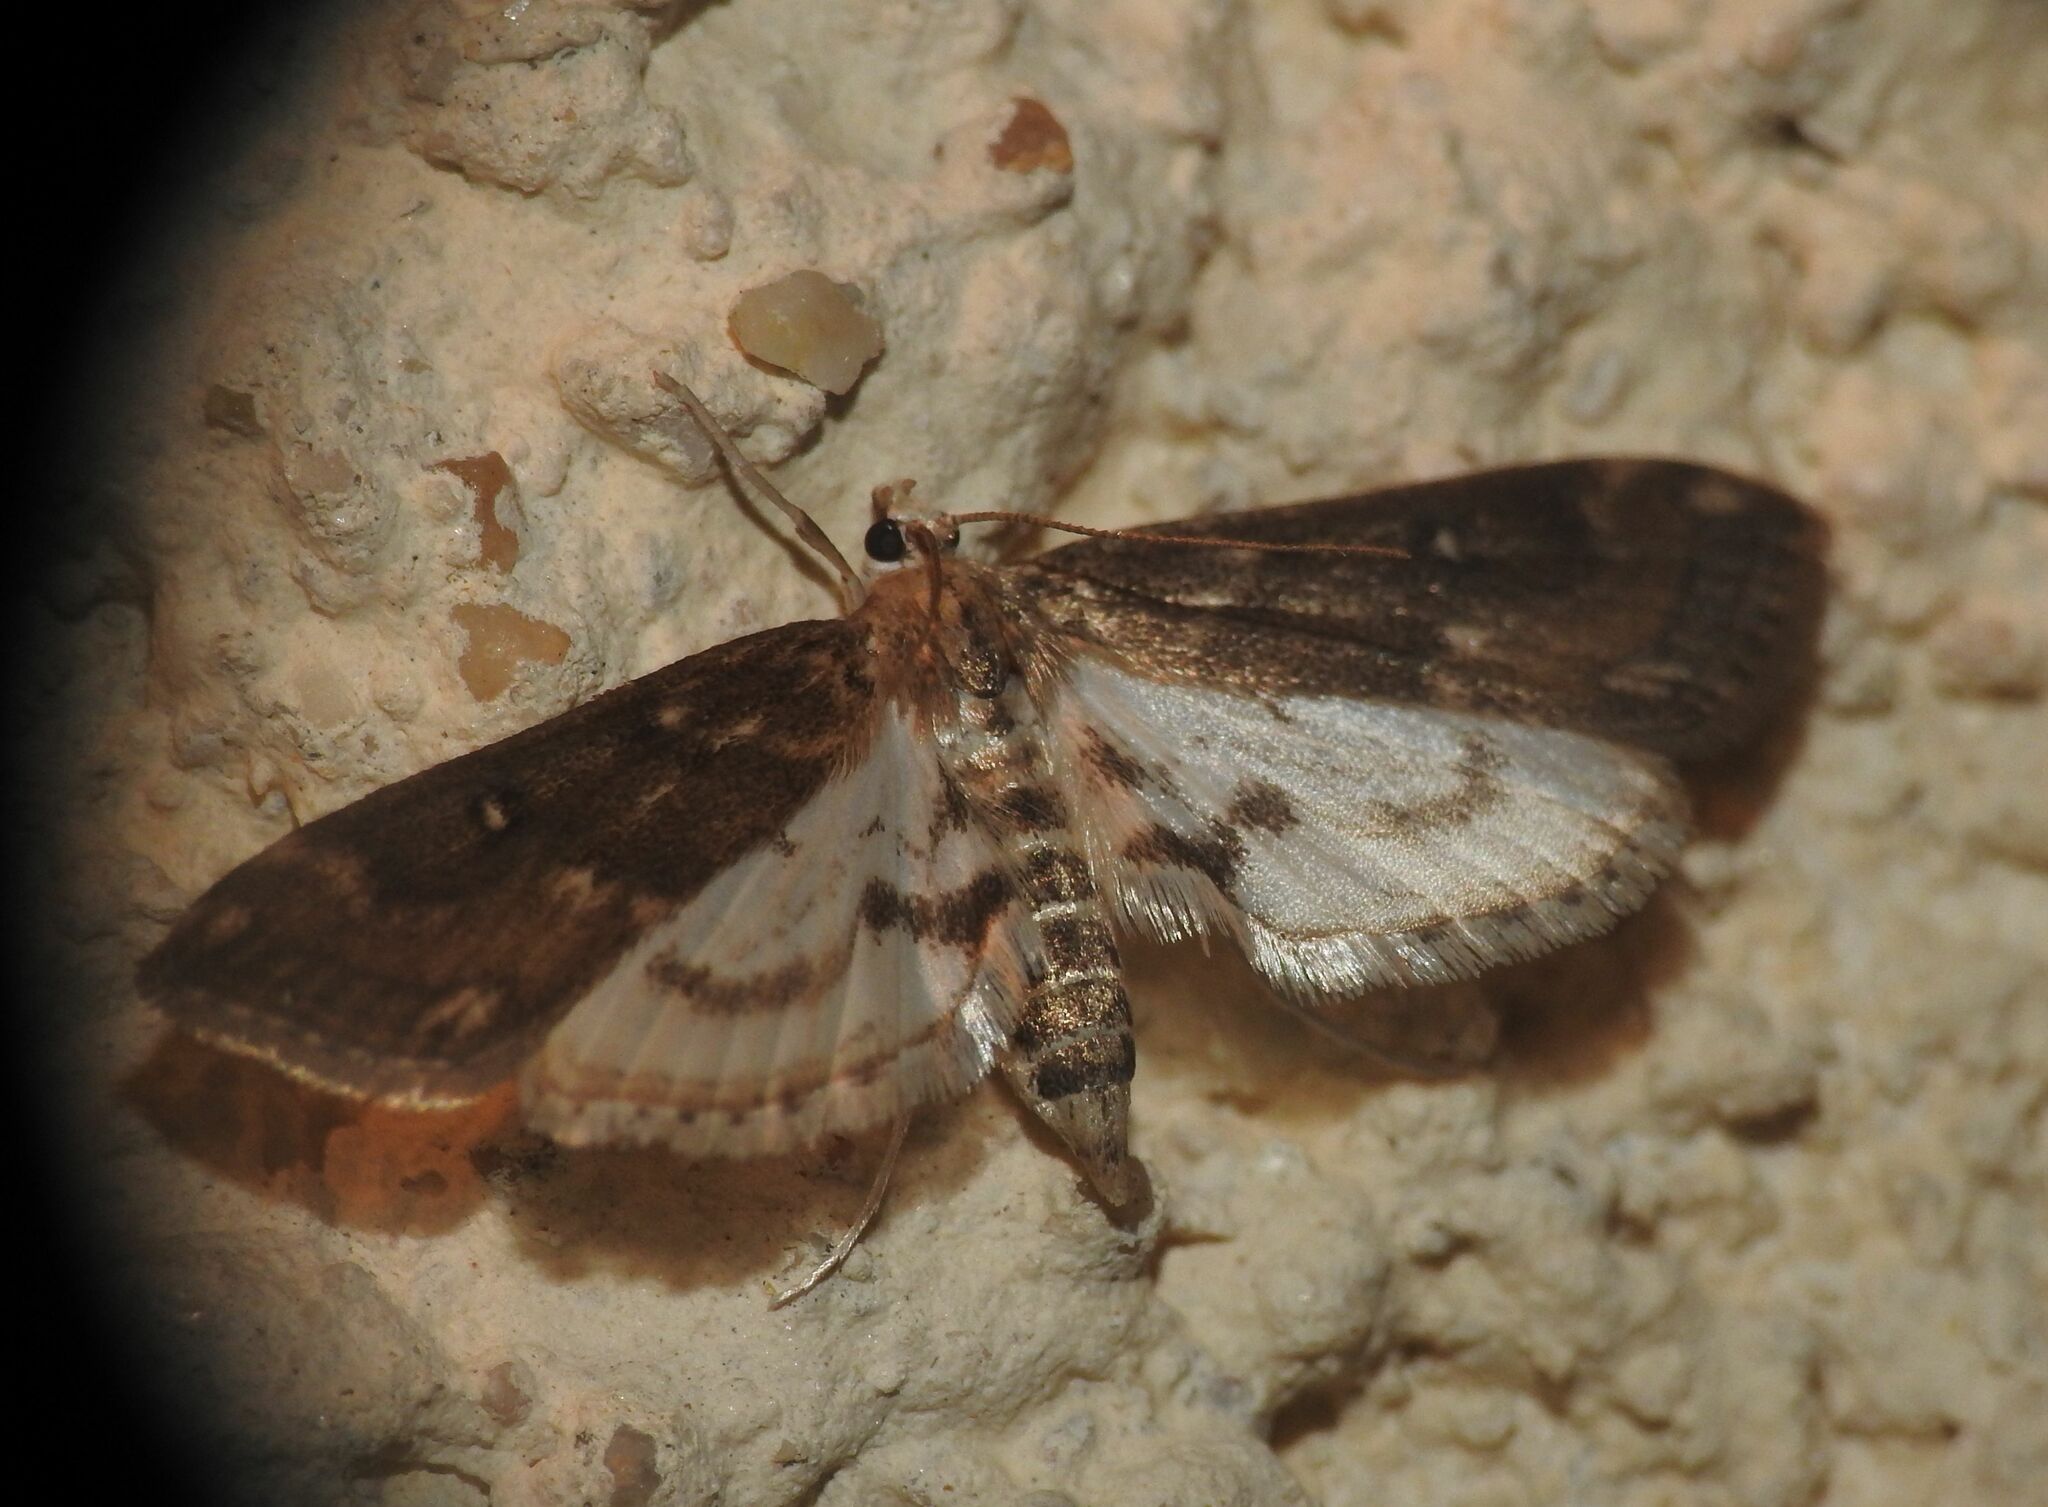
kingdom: Animalia
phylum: Arthropoda
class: Insecta
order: Lepidoptera
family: Crambidae
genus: Parapoynx
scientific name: Parapoynx stratiotata
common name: Ringed china-mark
